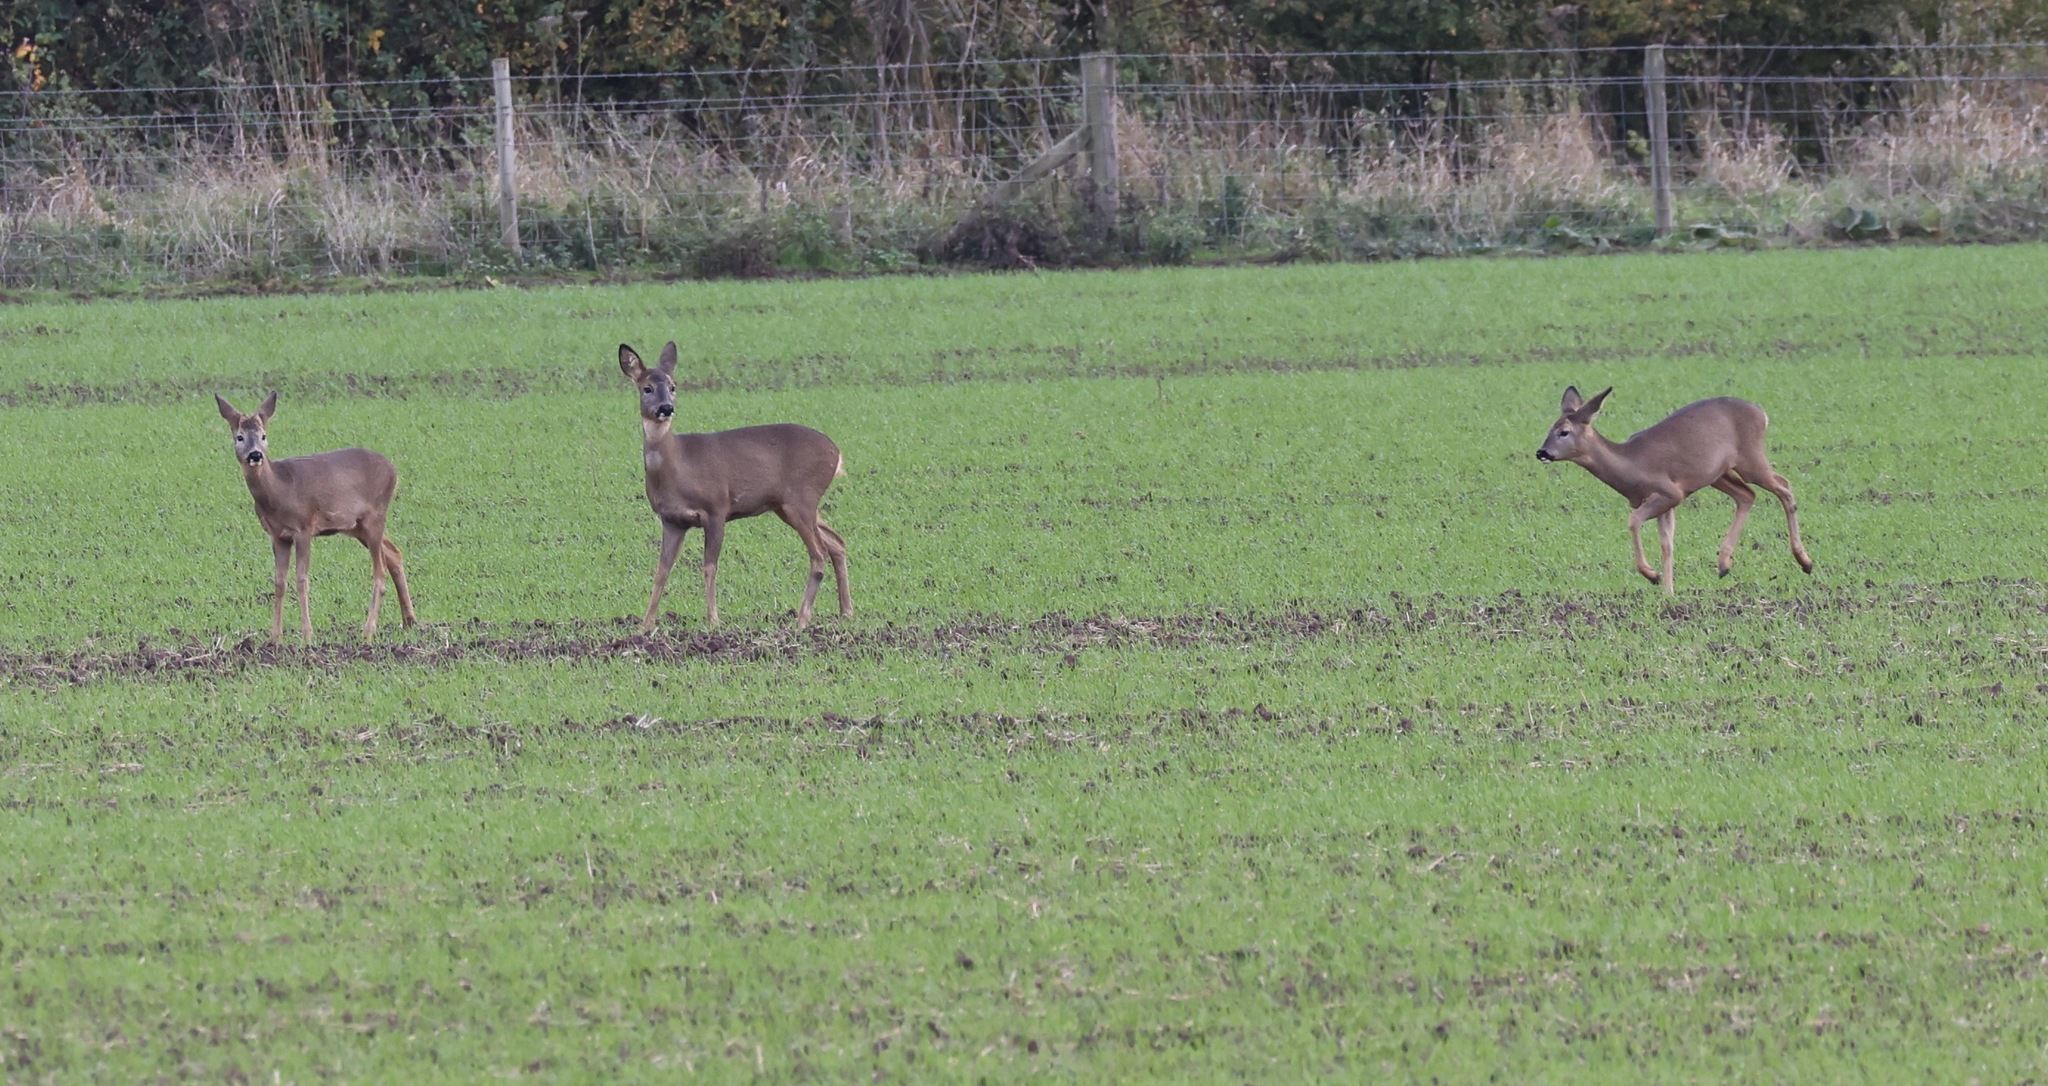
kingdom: Animalia
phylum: Chordata
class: Mammalia
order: Artiodactyla
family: Cervidae
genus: Capreolus
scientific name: Capreolus capreolus
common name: Western roe deer
